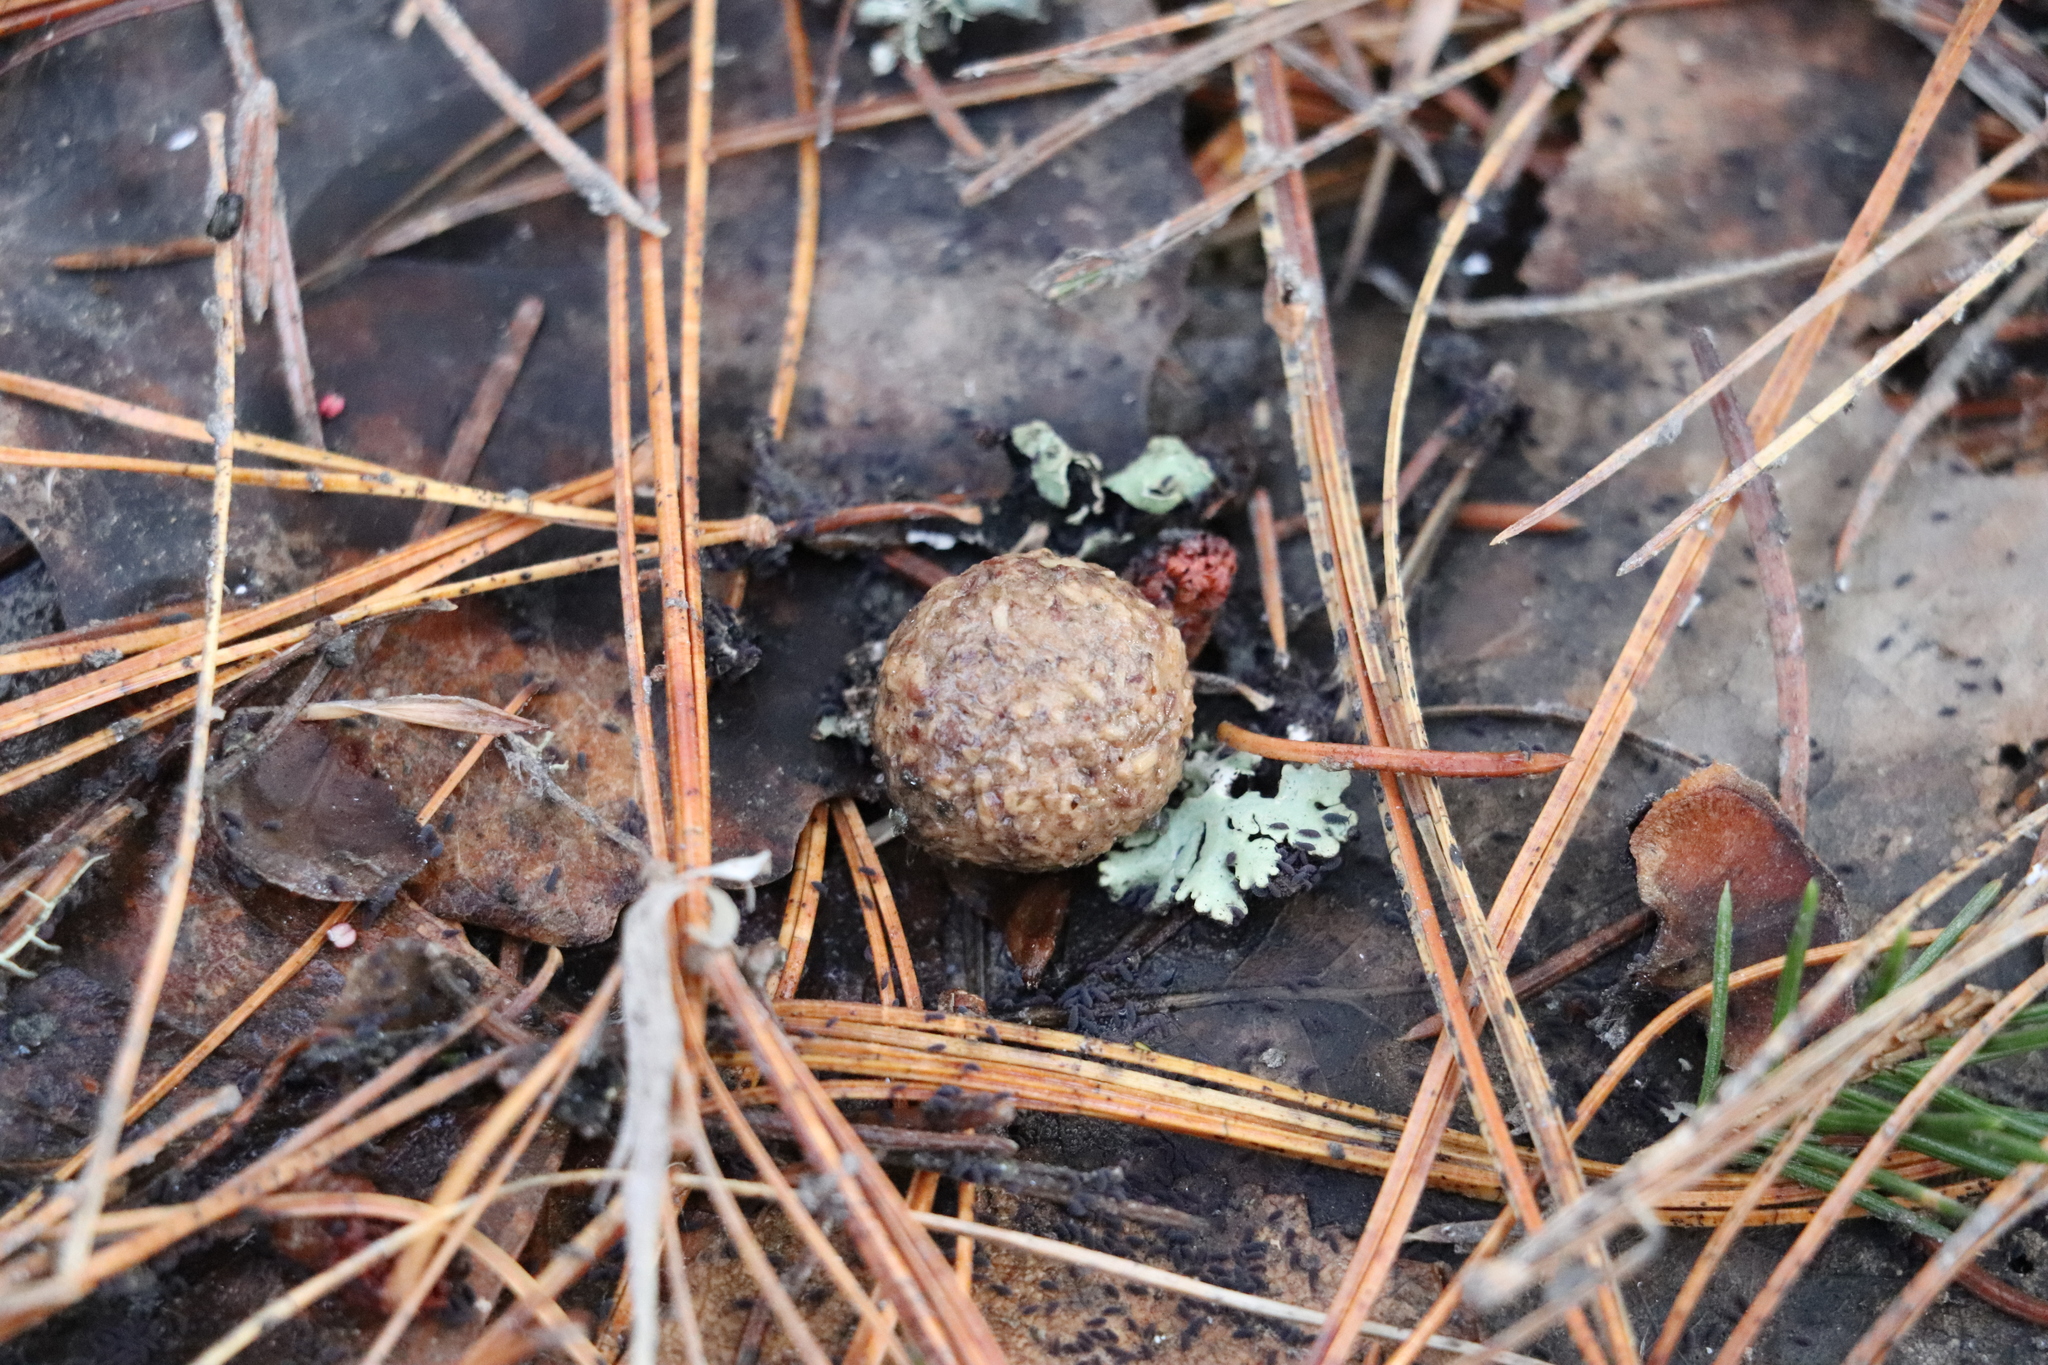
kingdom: Animalia
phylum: Chordata
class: Mammalia
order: Lagomorpha
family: Leporidae
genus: Lepus
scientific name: Lepus timidus
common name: Mountain hare
